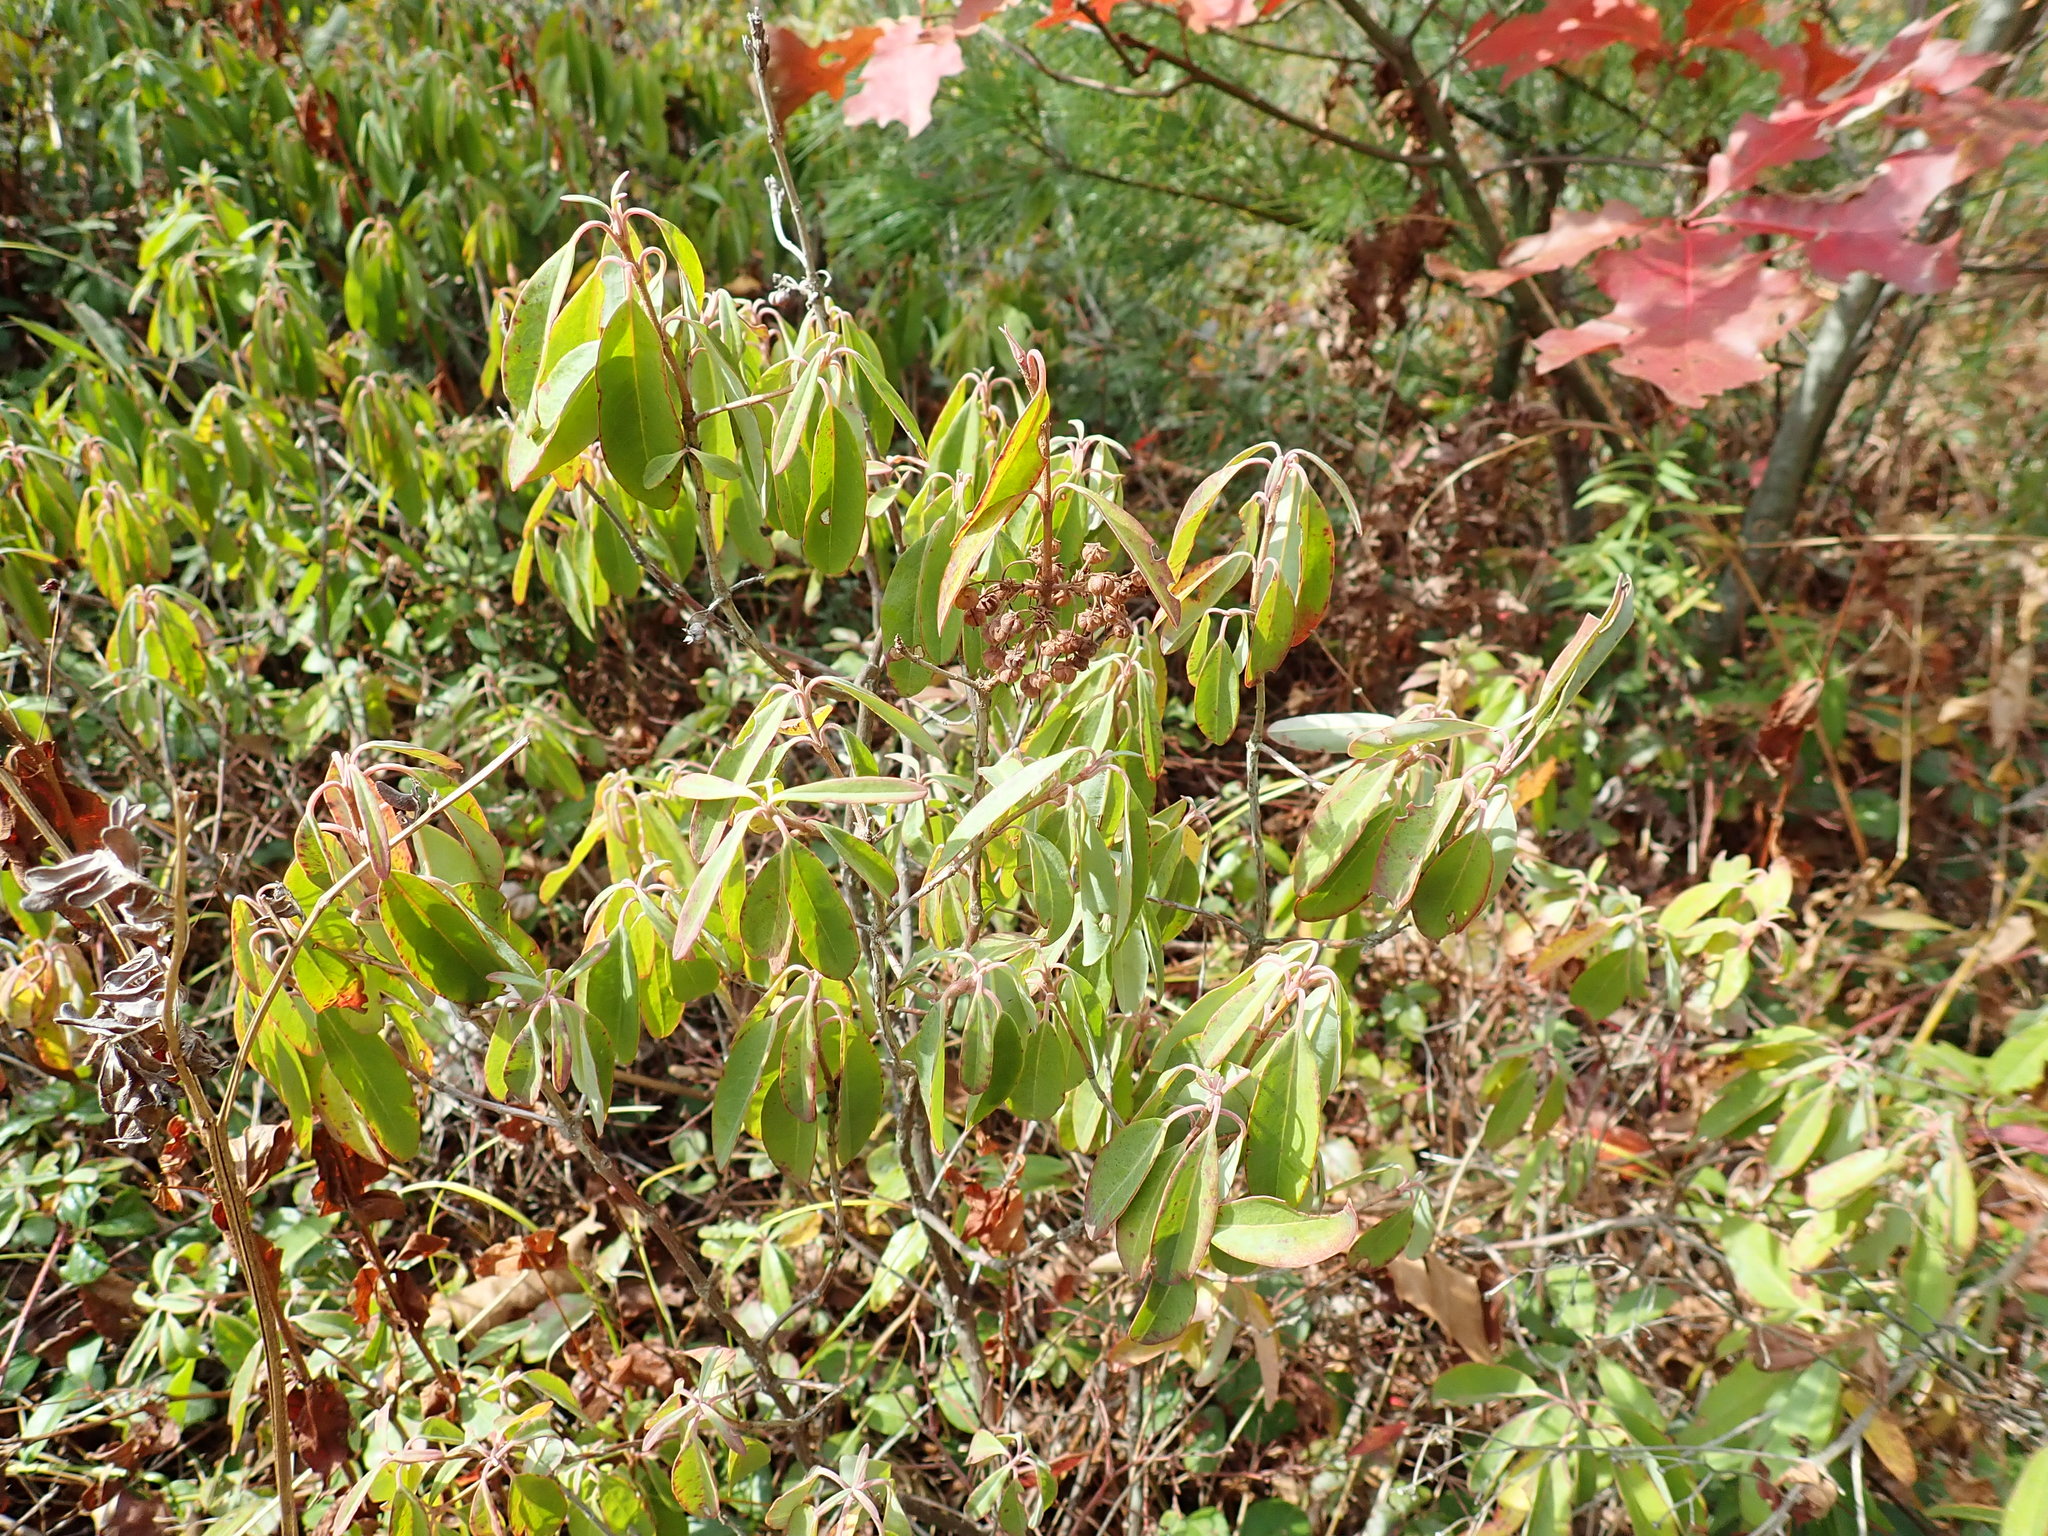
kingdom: Plantae
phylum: Tracheophyta
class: Magnoliopsida
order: Ericales
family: Ericaceae
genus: Kalmia
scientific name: Kalmia angustifolia
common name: Sheep-laurel
